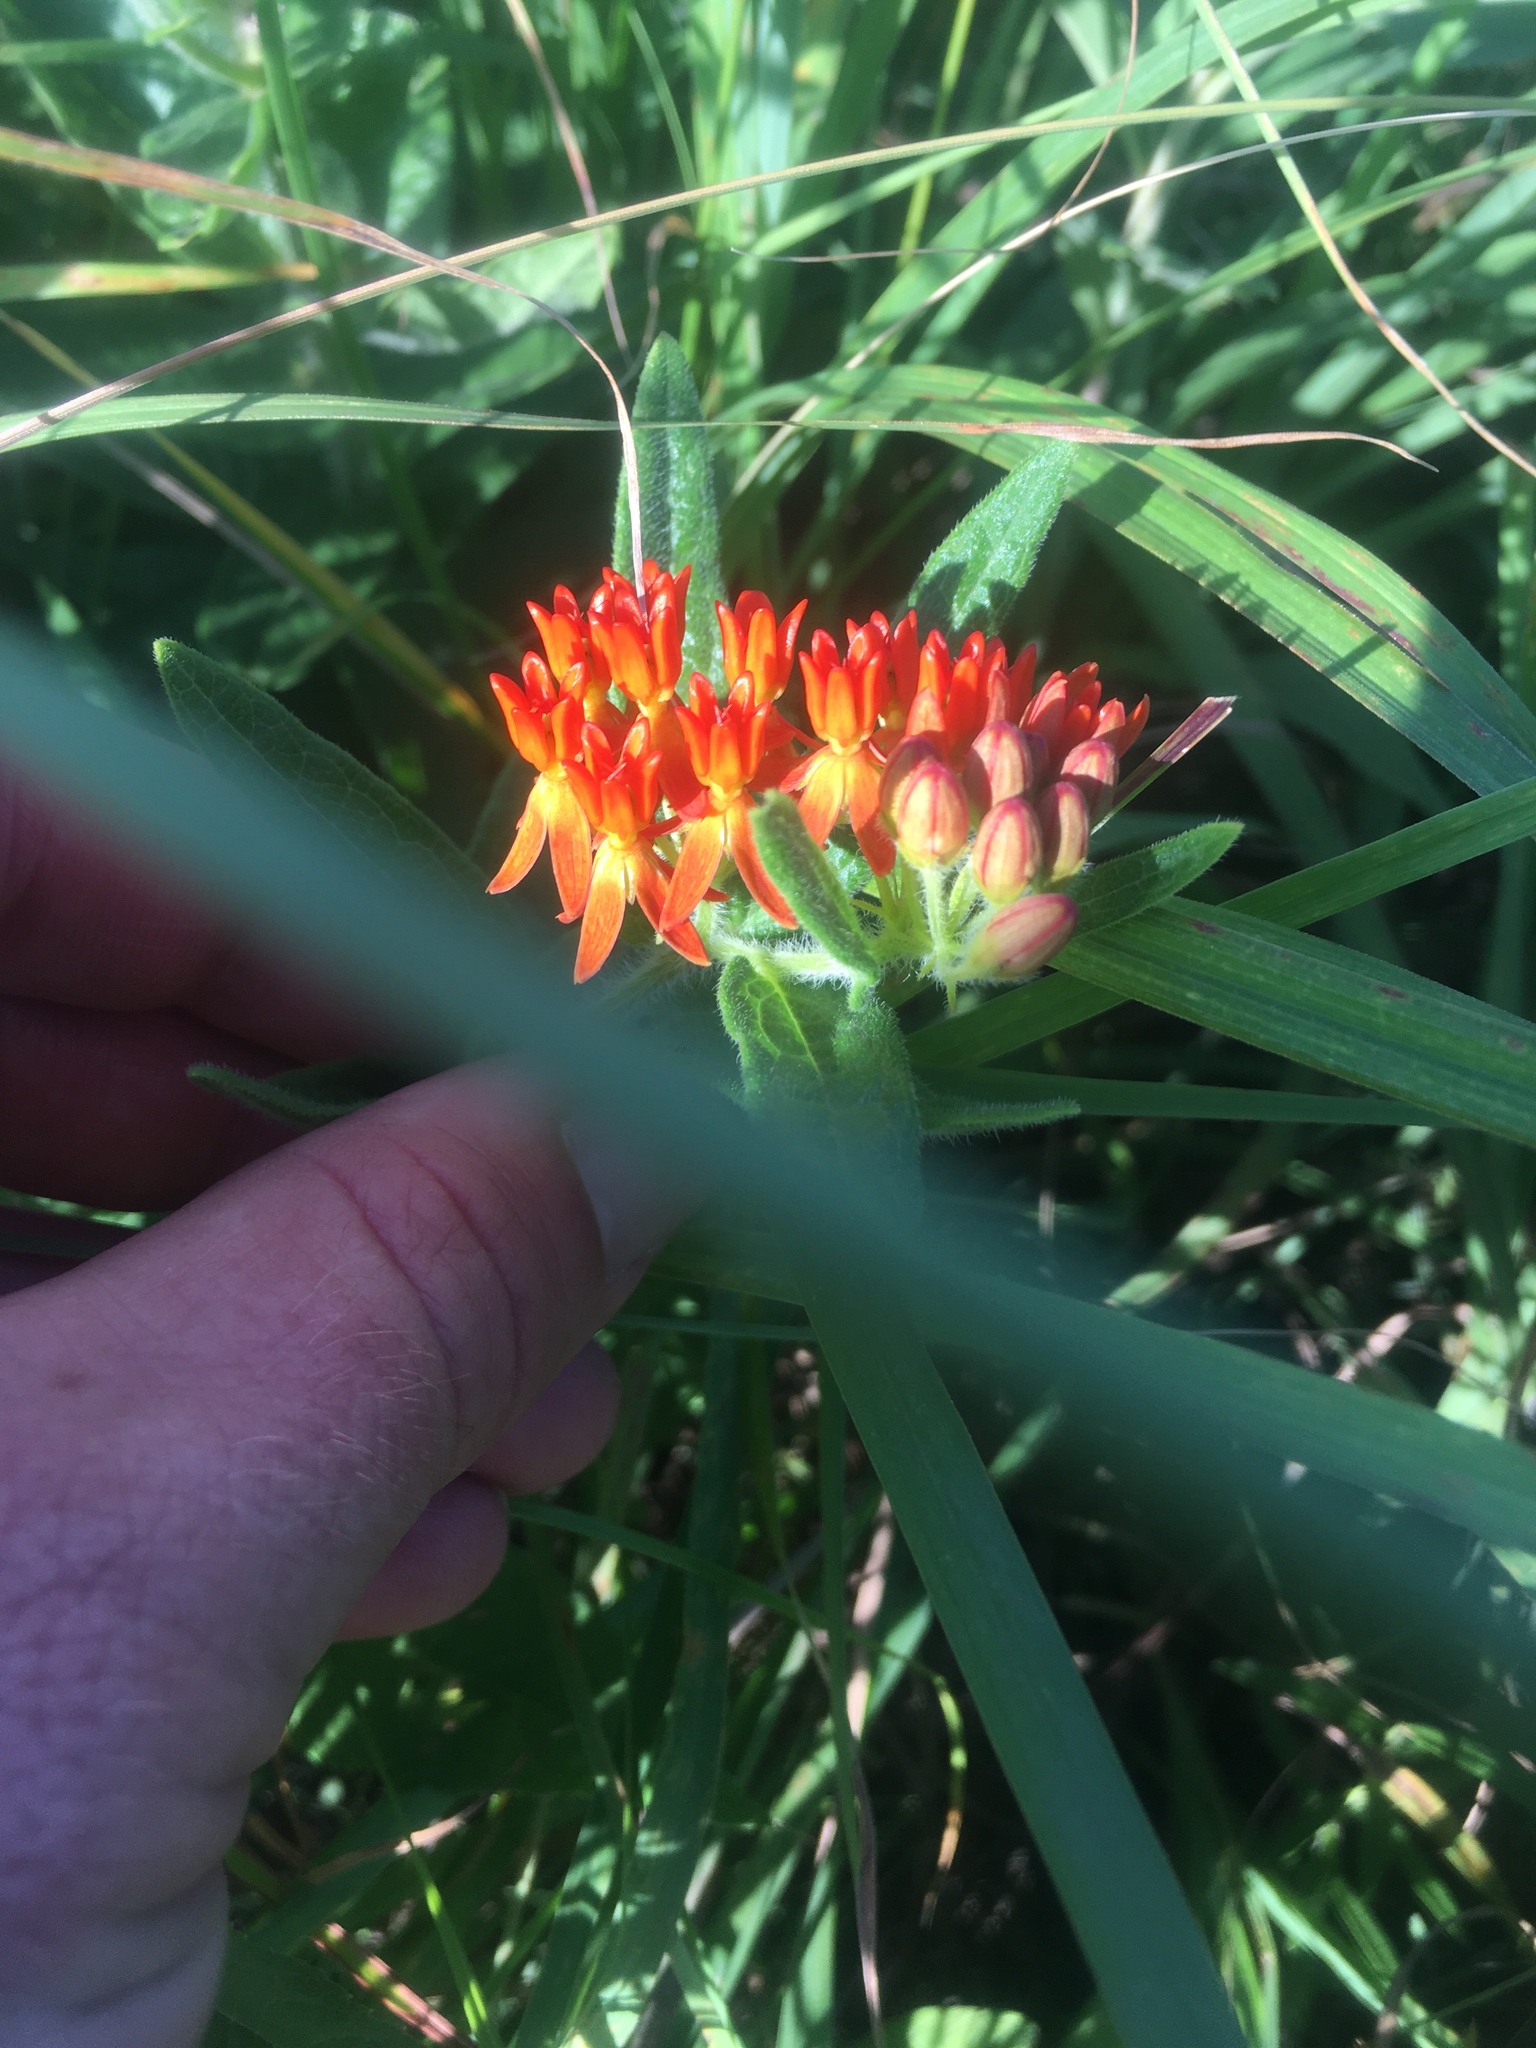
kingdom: Plantae
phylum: Tracheophyta
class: Magnoliopsida
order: Gentianales
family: Apocynaceae
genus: Asclepias
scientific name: Asclepias tuberosa
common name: Butterfly milkweed
